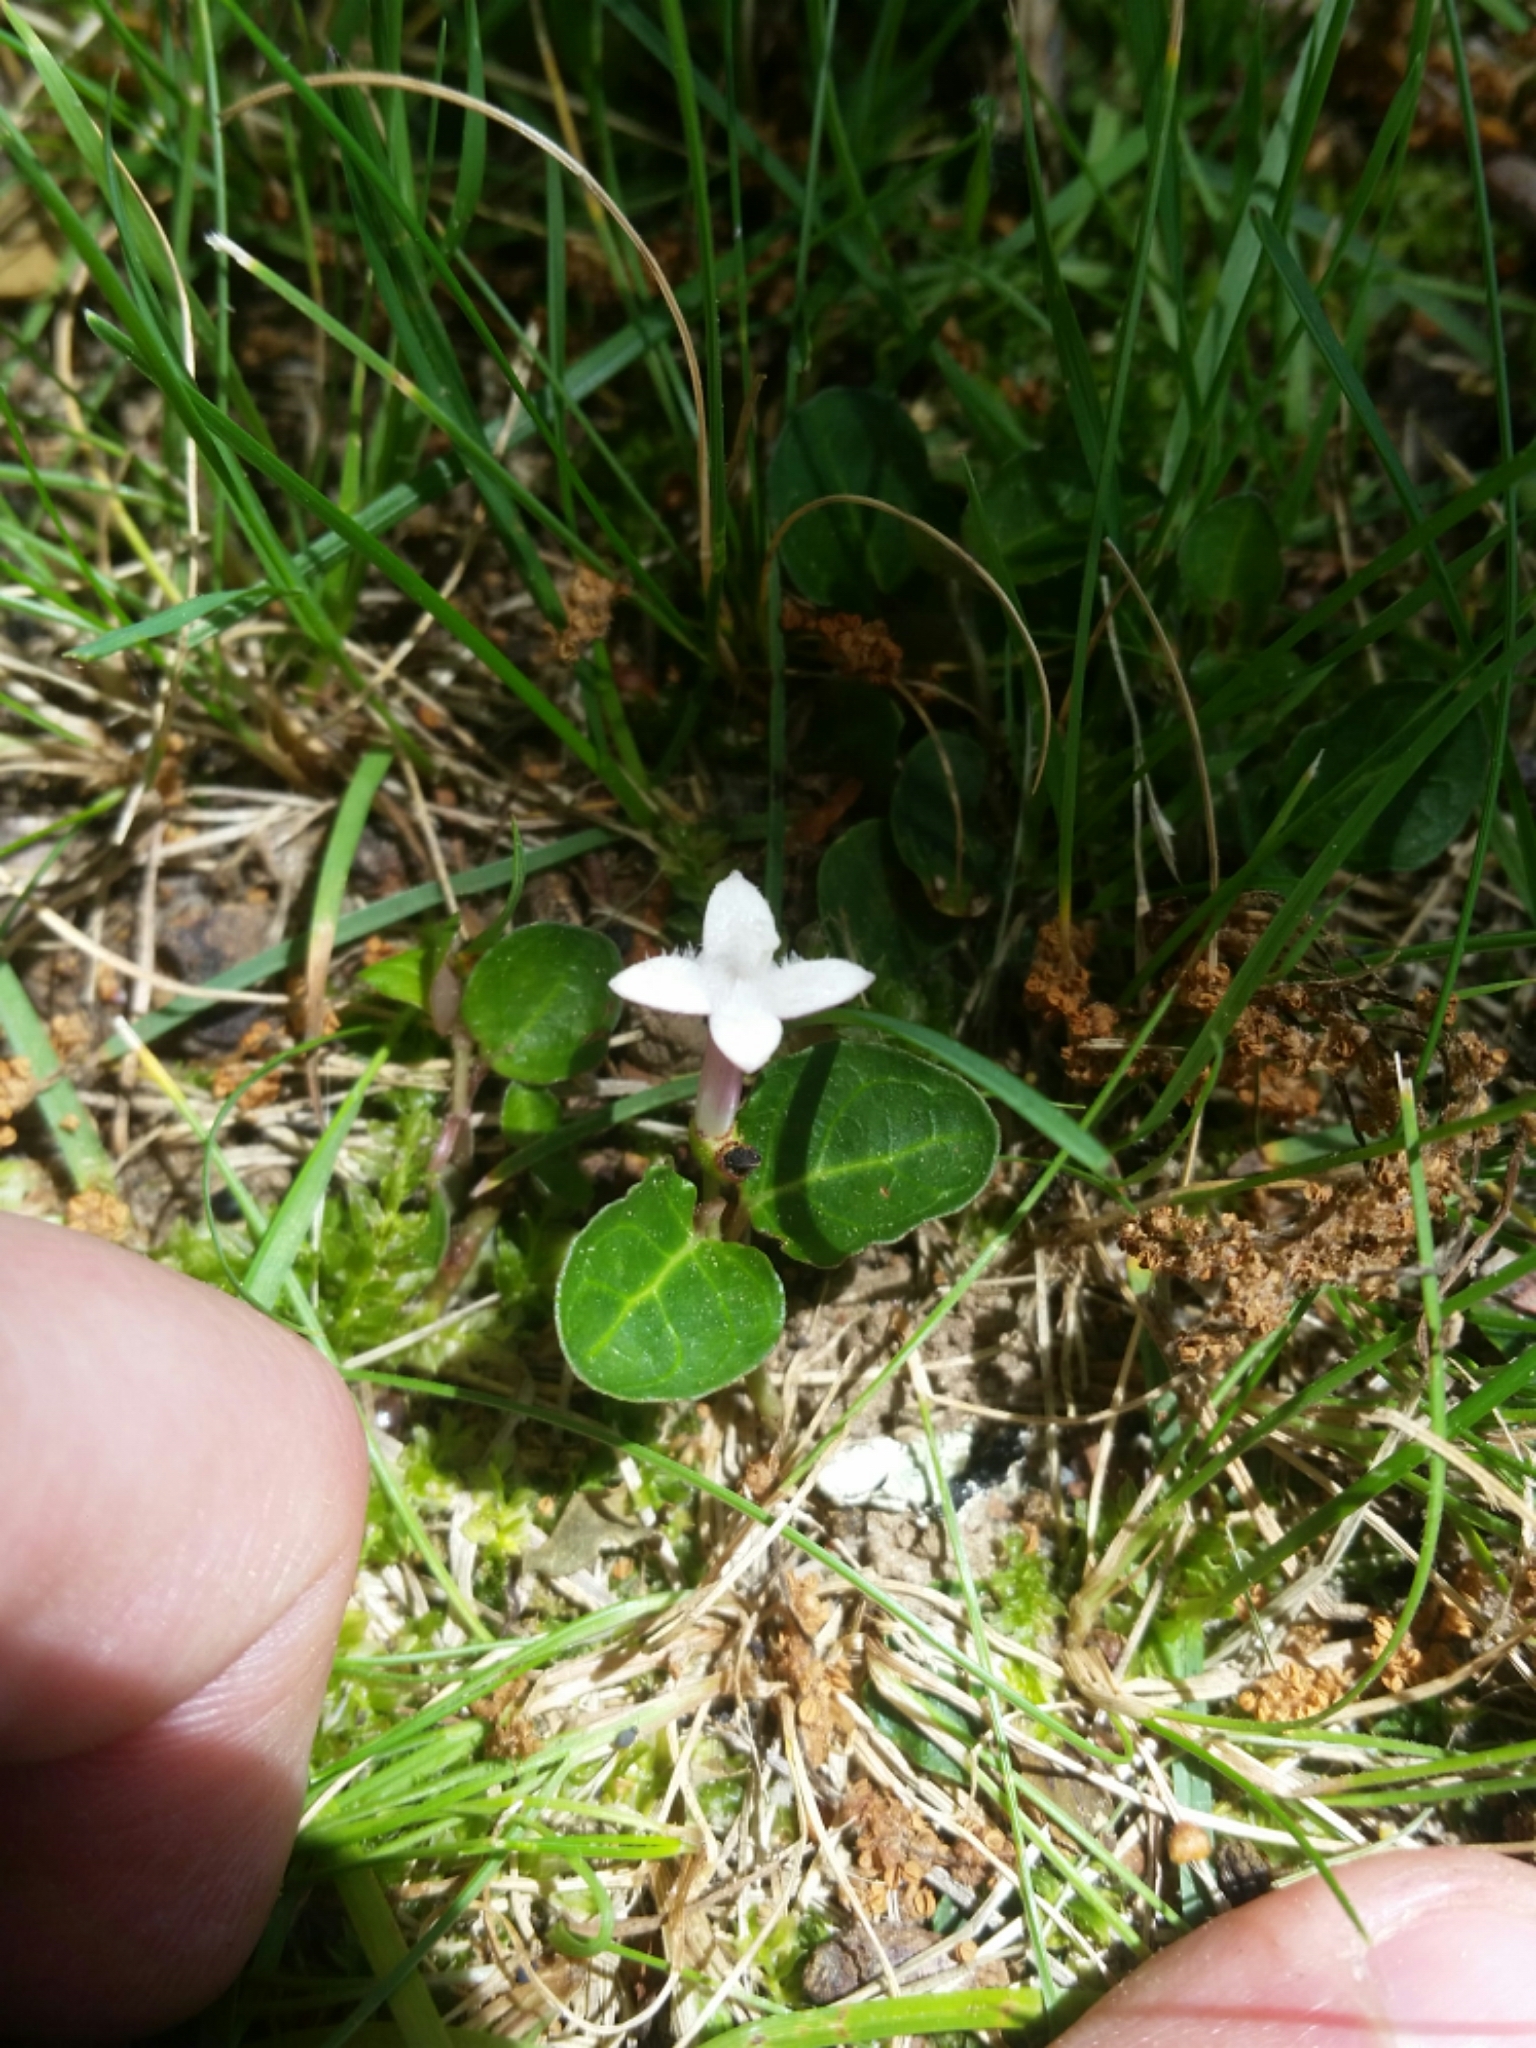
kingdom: Plantae
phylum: Tracheophyta
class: Magnoliopsida
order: Gentianales
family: Rubiaceae
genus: Mitchella
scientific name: Mitchella repens
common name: Partridge-berry
